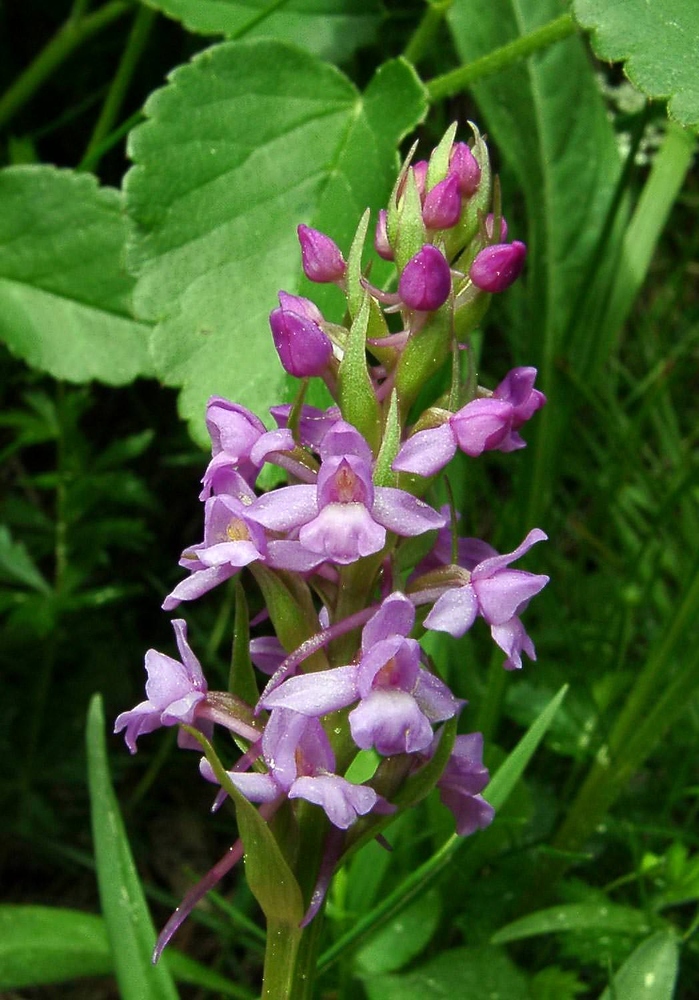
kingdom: Plantae
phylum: Tracheophyta
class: Liliopsida
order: Asparagales
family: Orchidaceae
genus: Gymnadenia
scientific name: Gymnadenia conopsea
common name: Fragrant orchid
